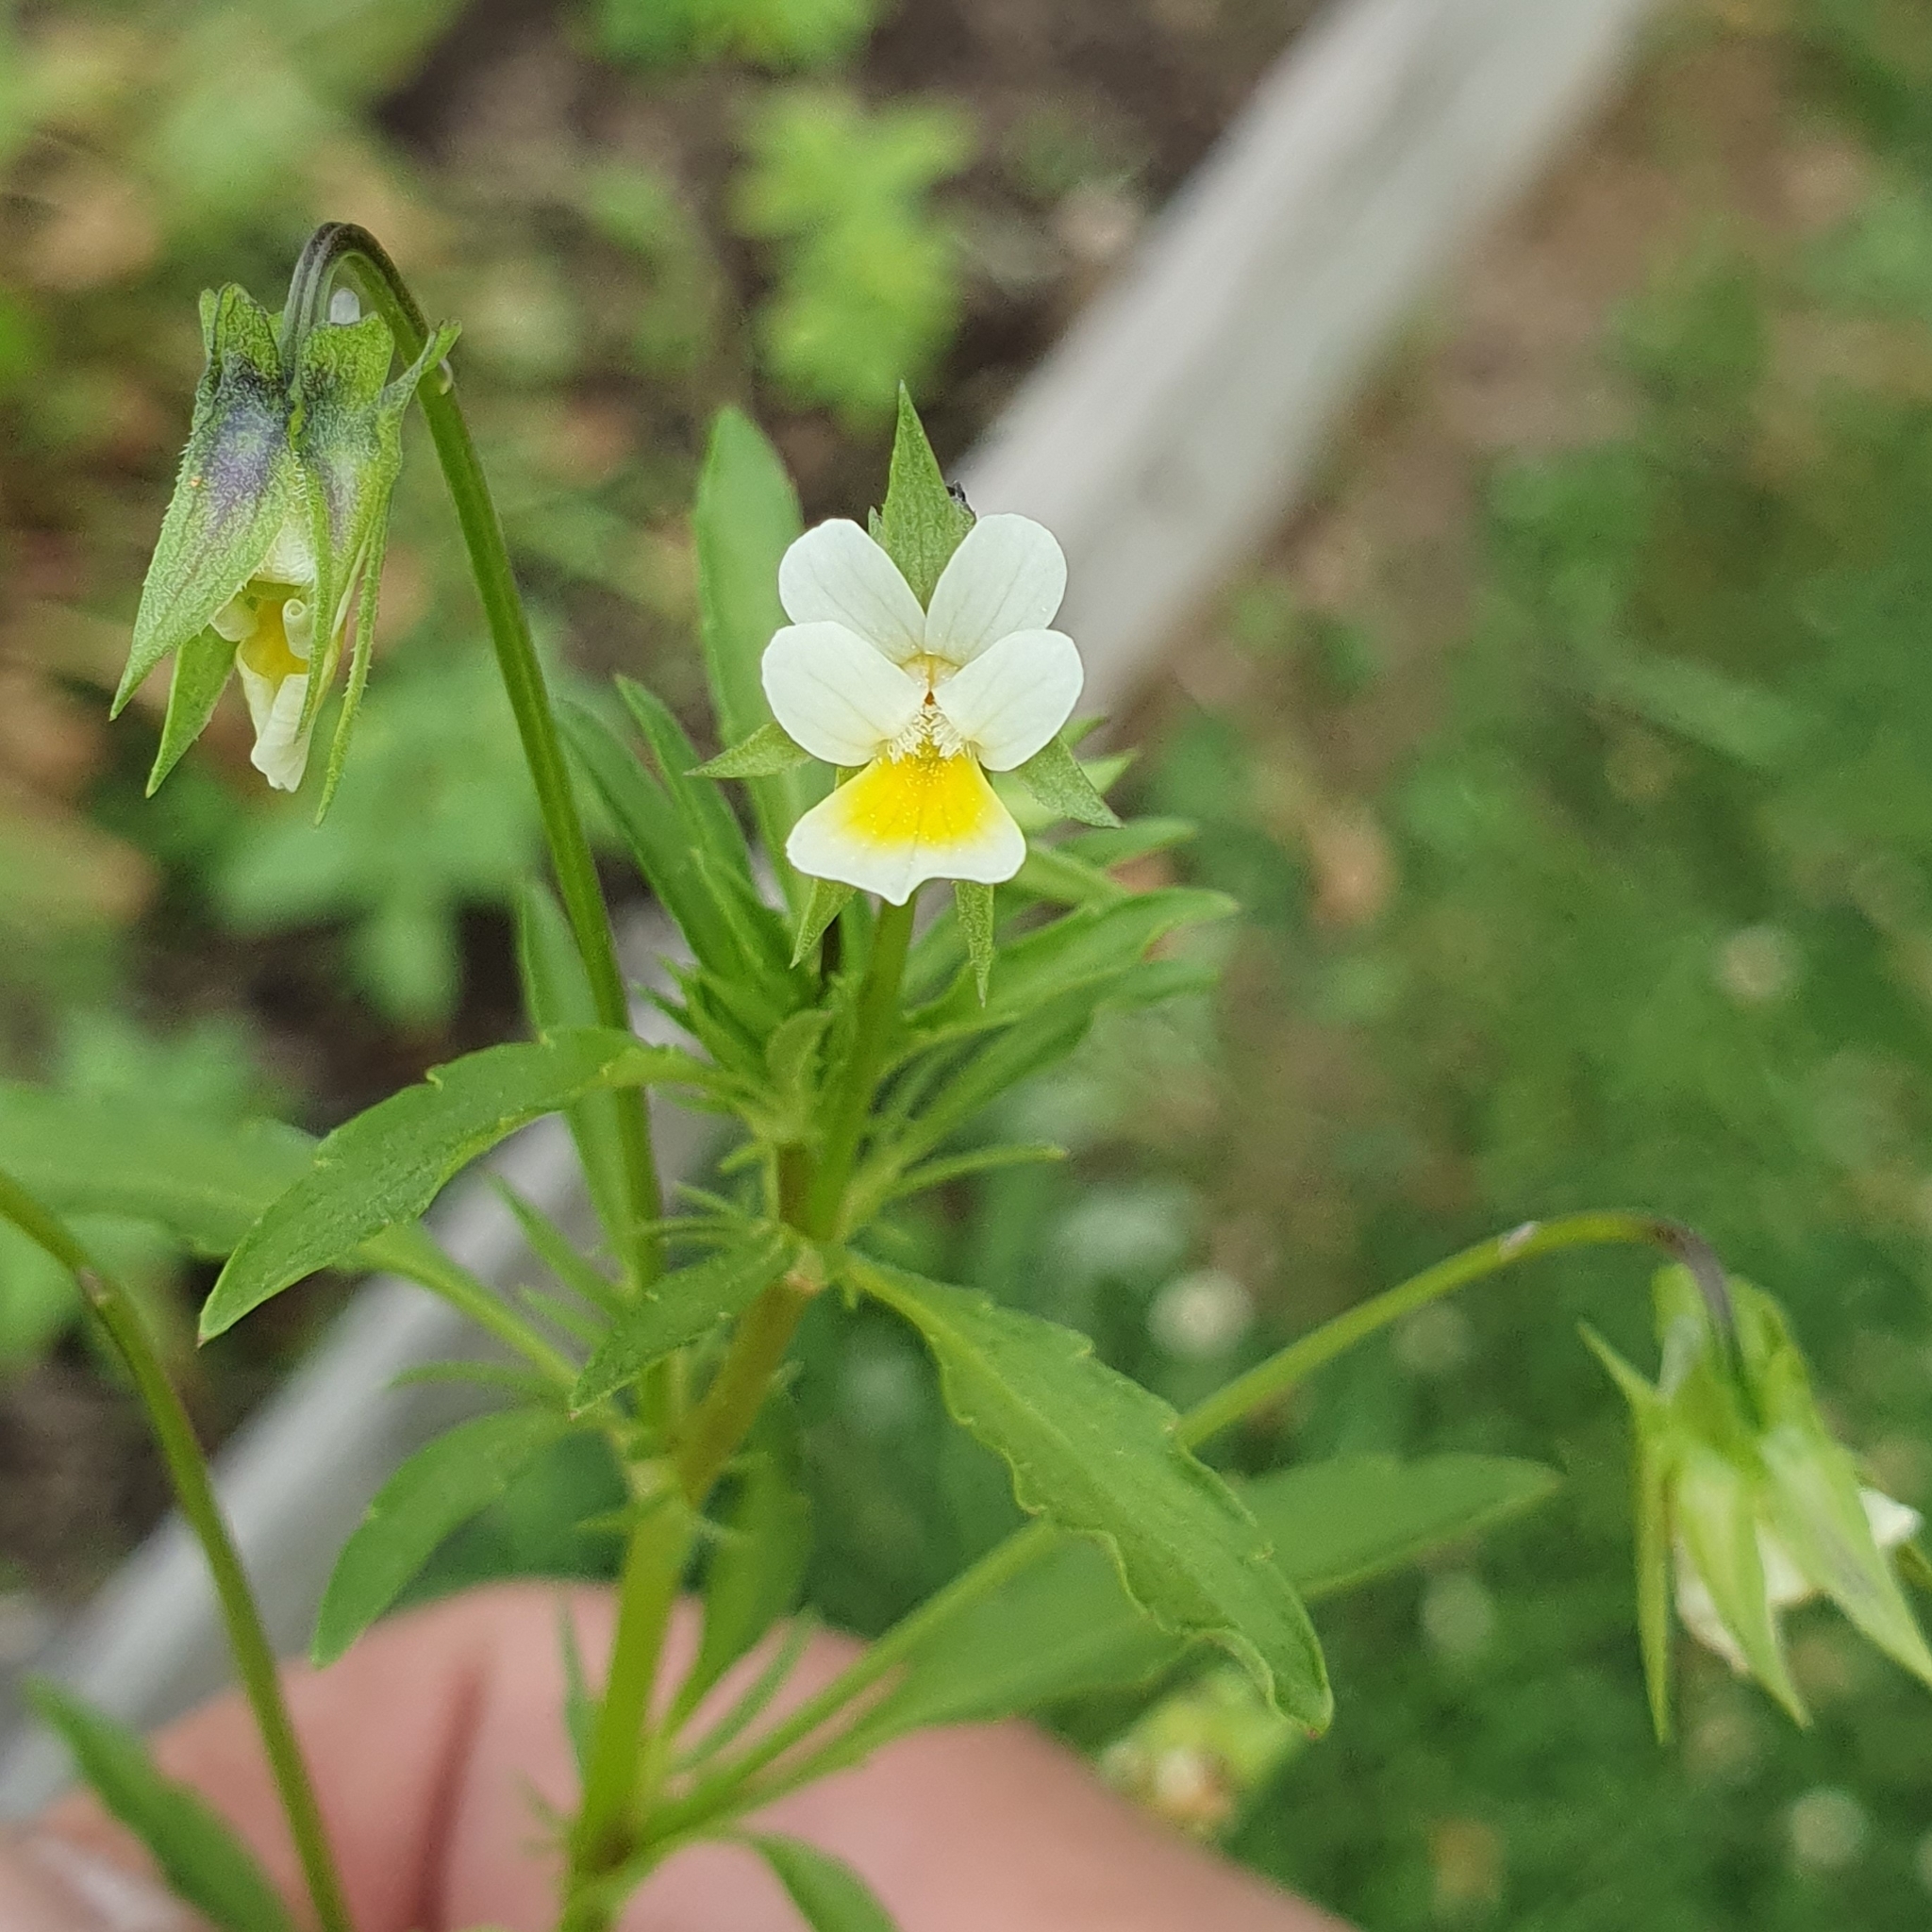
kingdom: Plantae
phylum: Tracheophyta
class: Magnoliopsida
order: Malpighiales
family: Violaceae
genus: Viola
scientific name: Viola arvensis
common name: Field pansy
